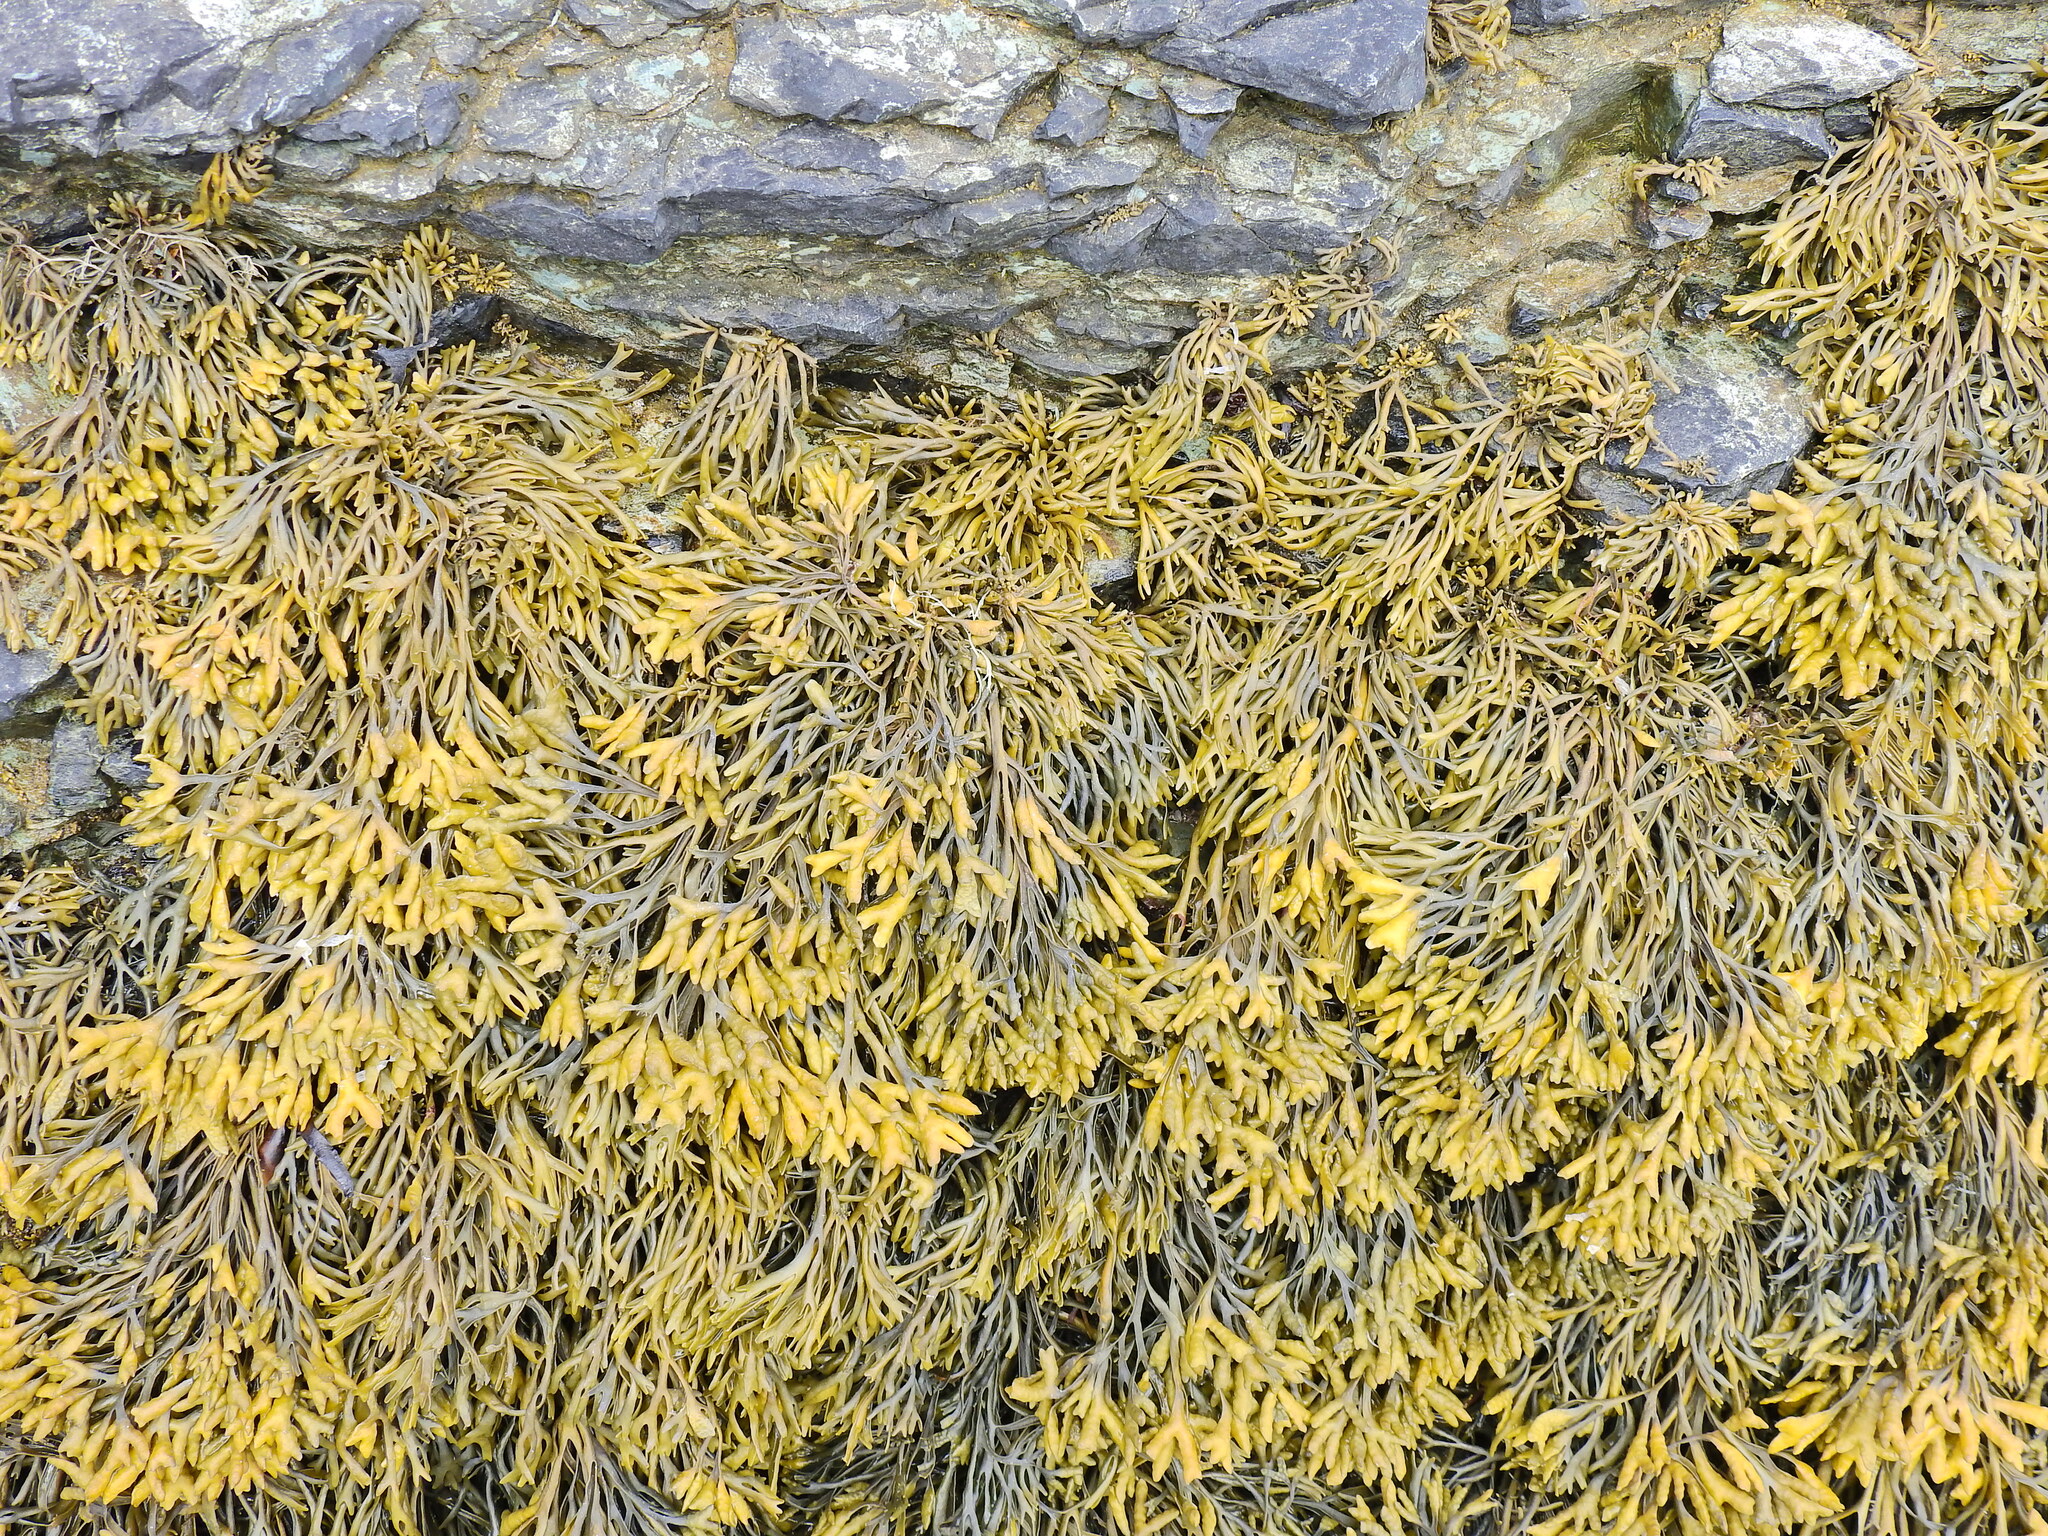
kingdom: Chromista
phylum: Ochrophyta
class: Phaeophyceae
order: Fucales
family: Fucaceae
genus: Pelvetia
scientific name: Pelvetia canaliculata
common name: Channelled wrack
